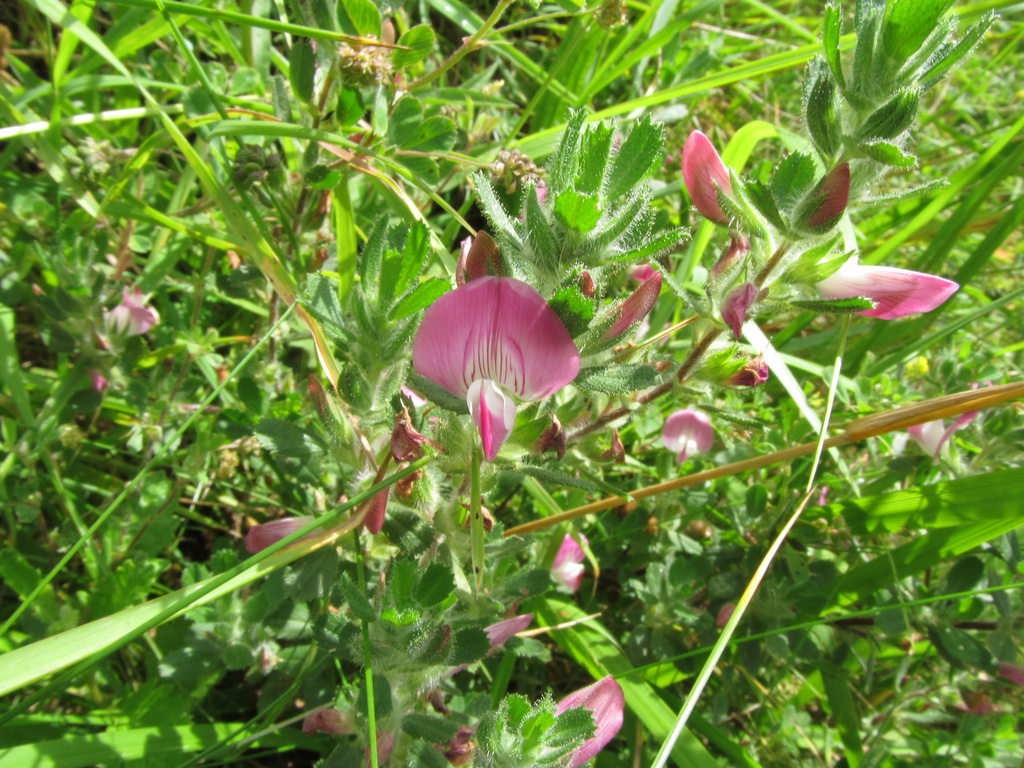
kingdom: Plantae
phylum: Tracheophyta
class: Magnoliopsida
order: Fabales
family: Fabaceae
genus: Ononis
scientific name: Ononis spinosa
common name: Spiny restharrow
